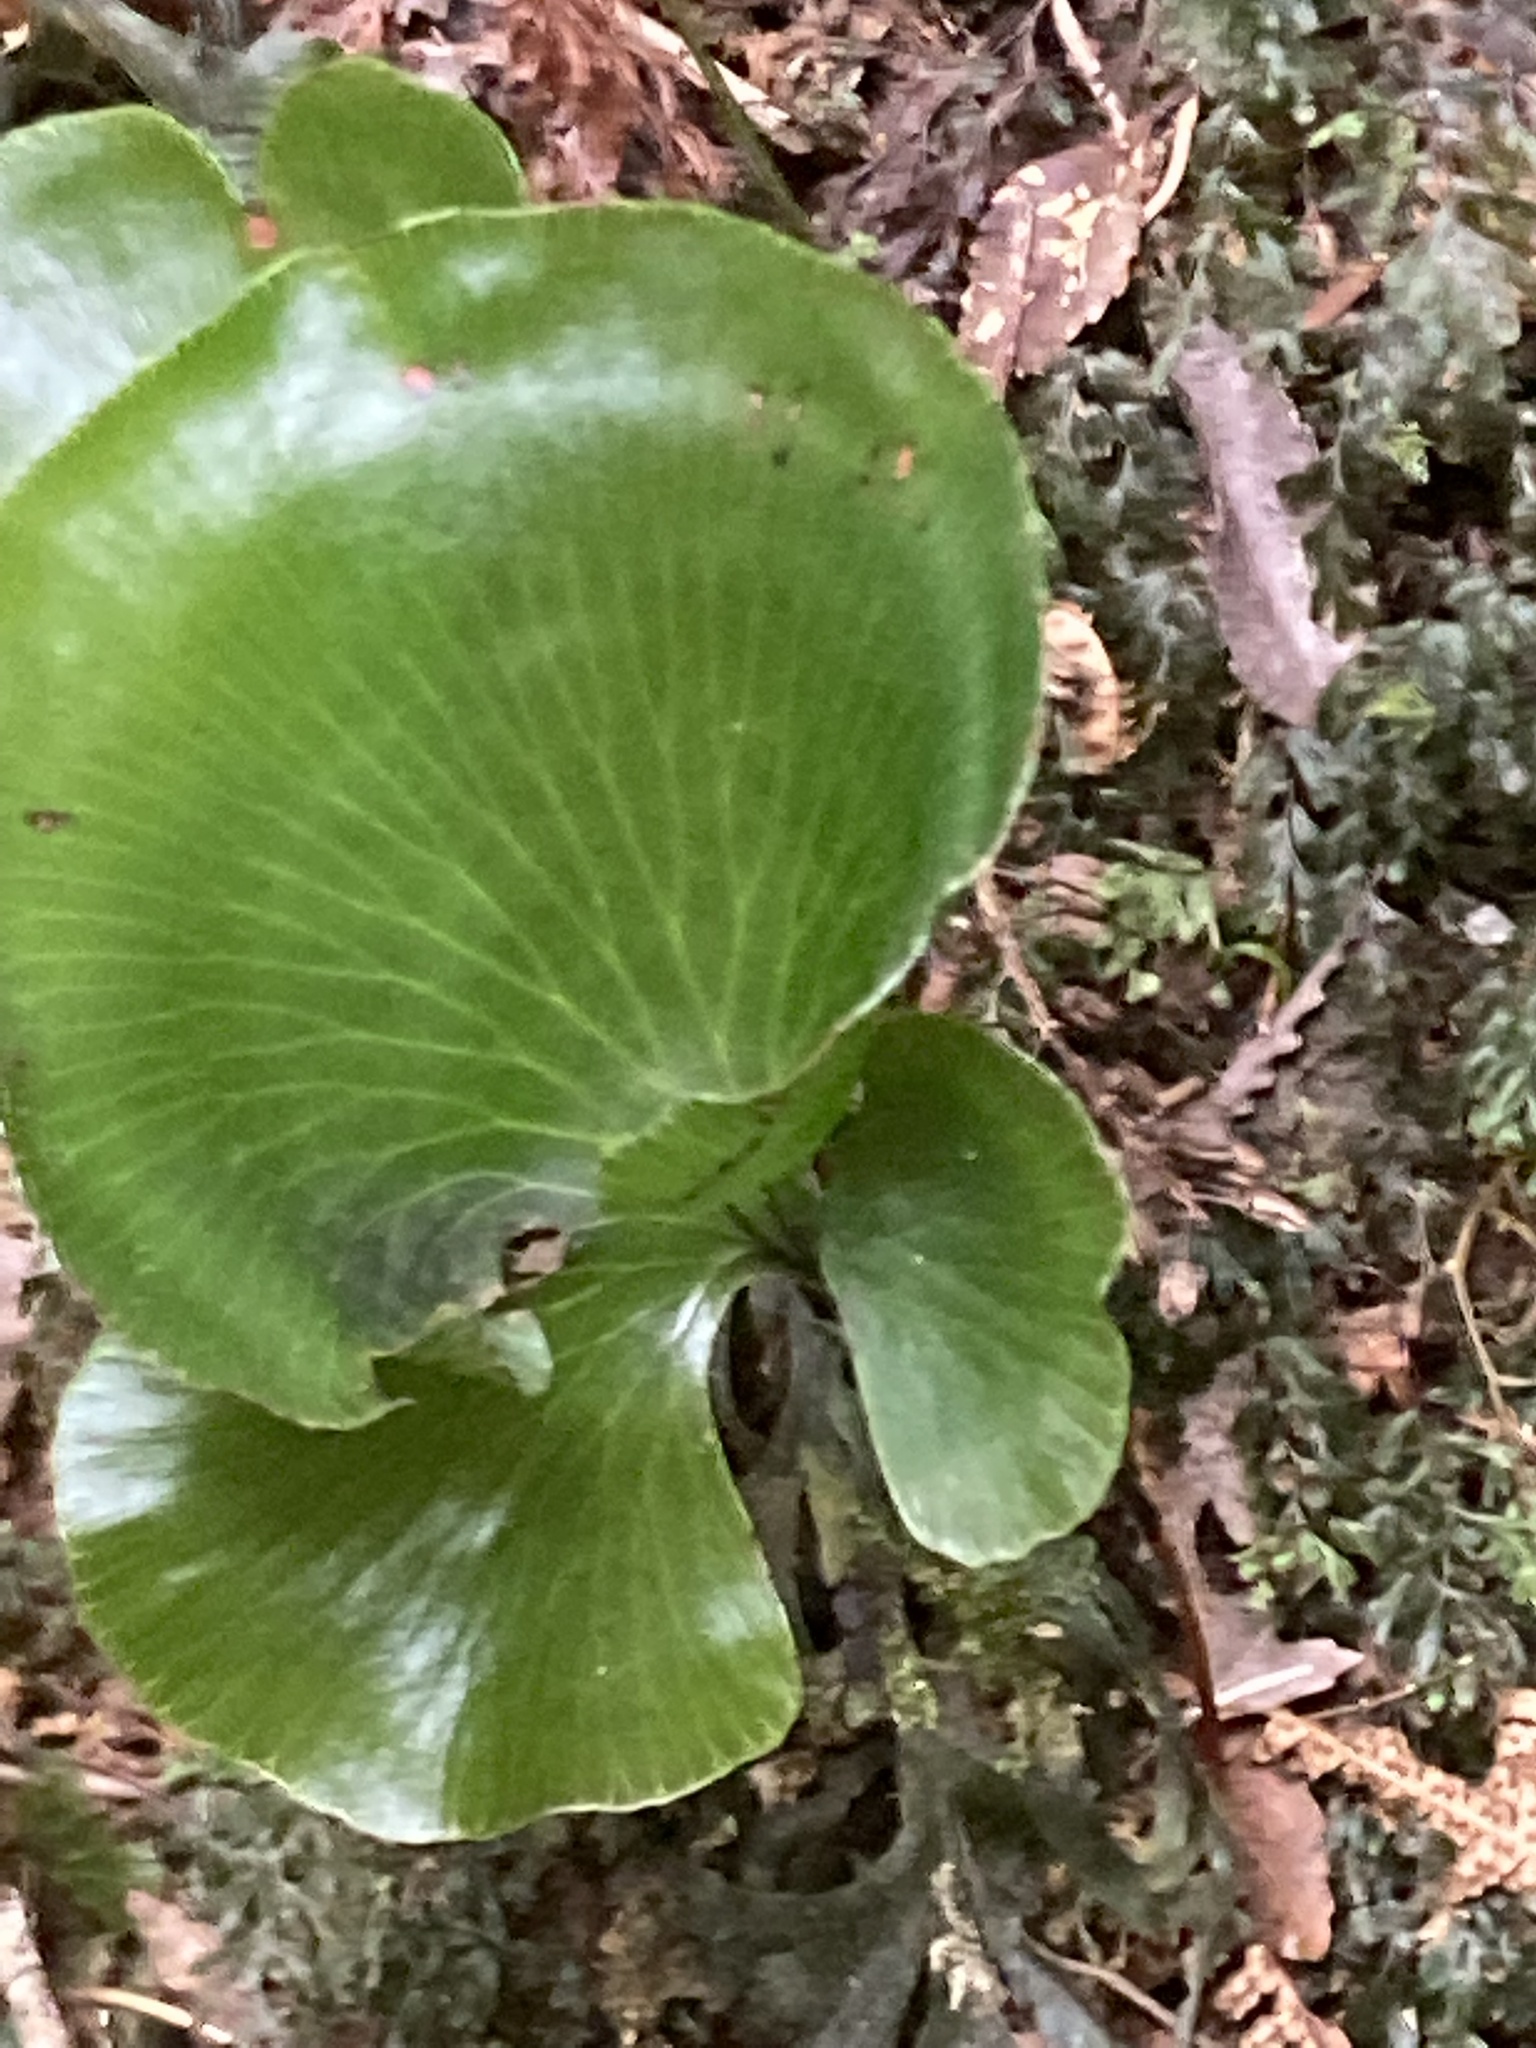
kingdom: Plantae
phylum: Tracheophyta
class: Polypodiopsida
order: Hymenophyllales
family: Hymenophyllaceae
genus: Hymenophyllum
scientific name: Hymenophyllum nephrophyllum
